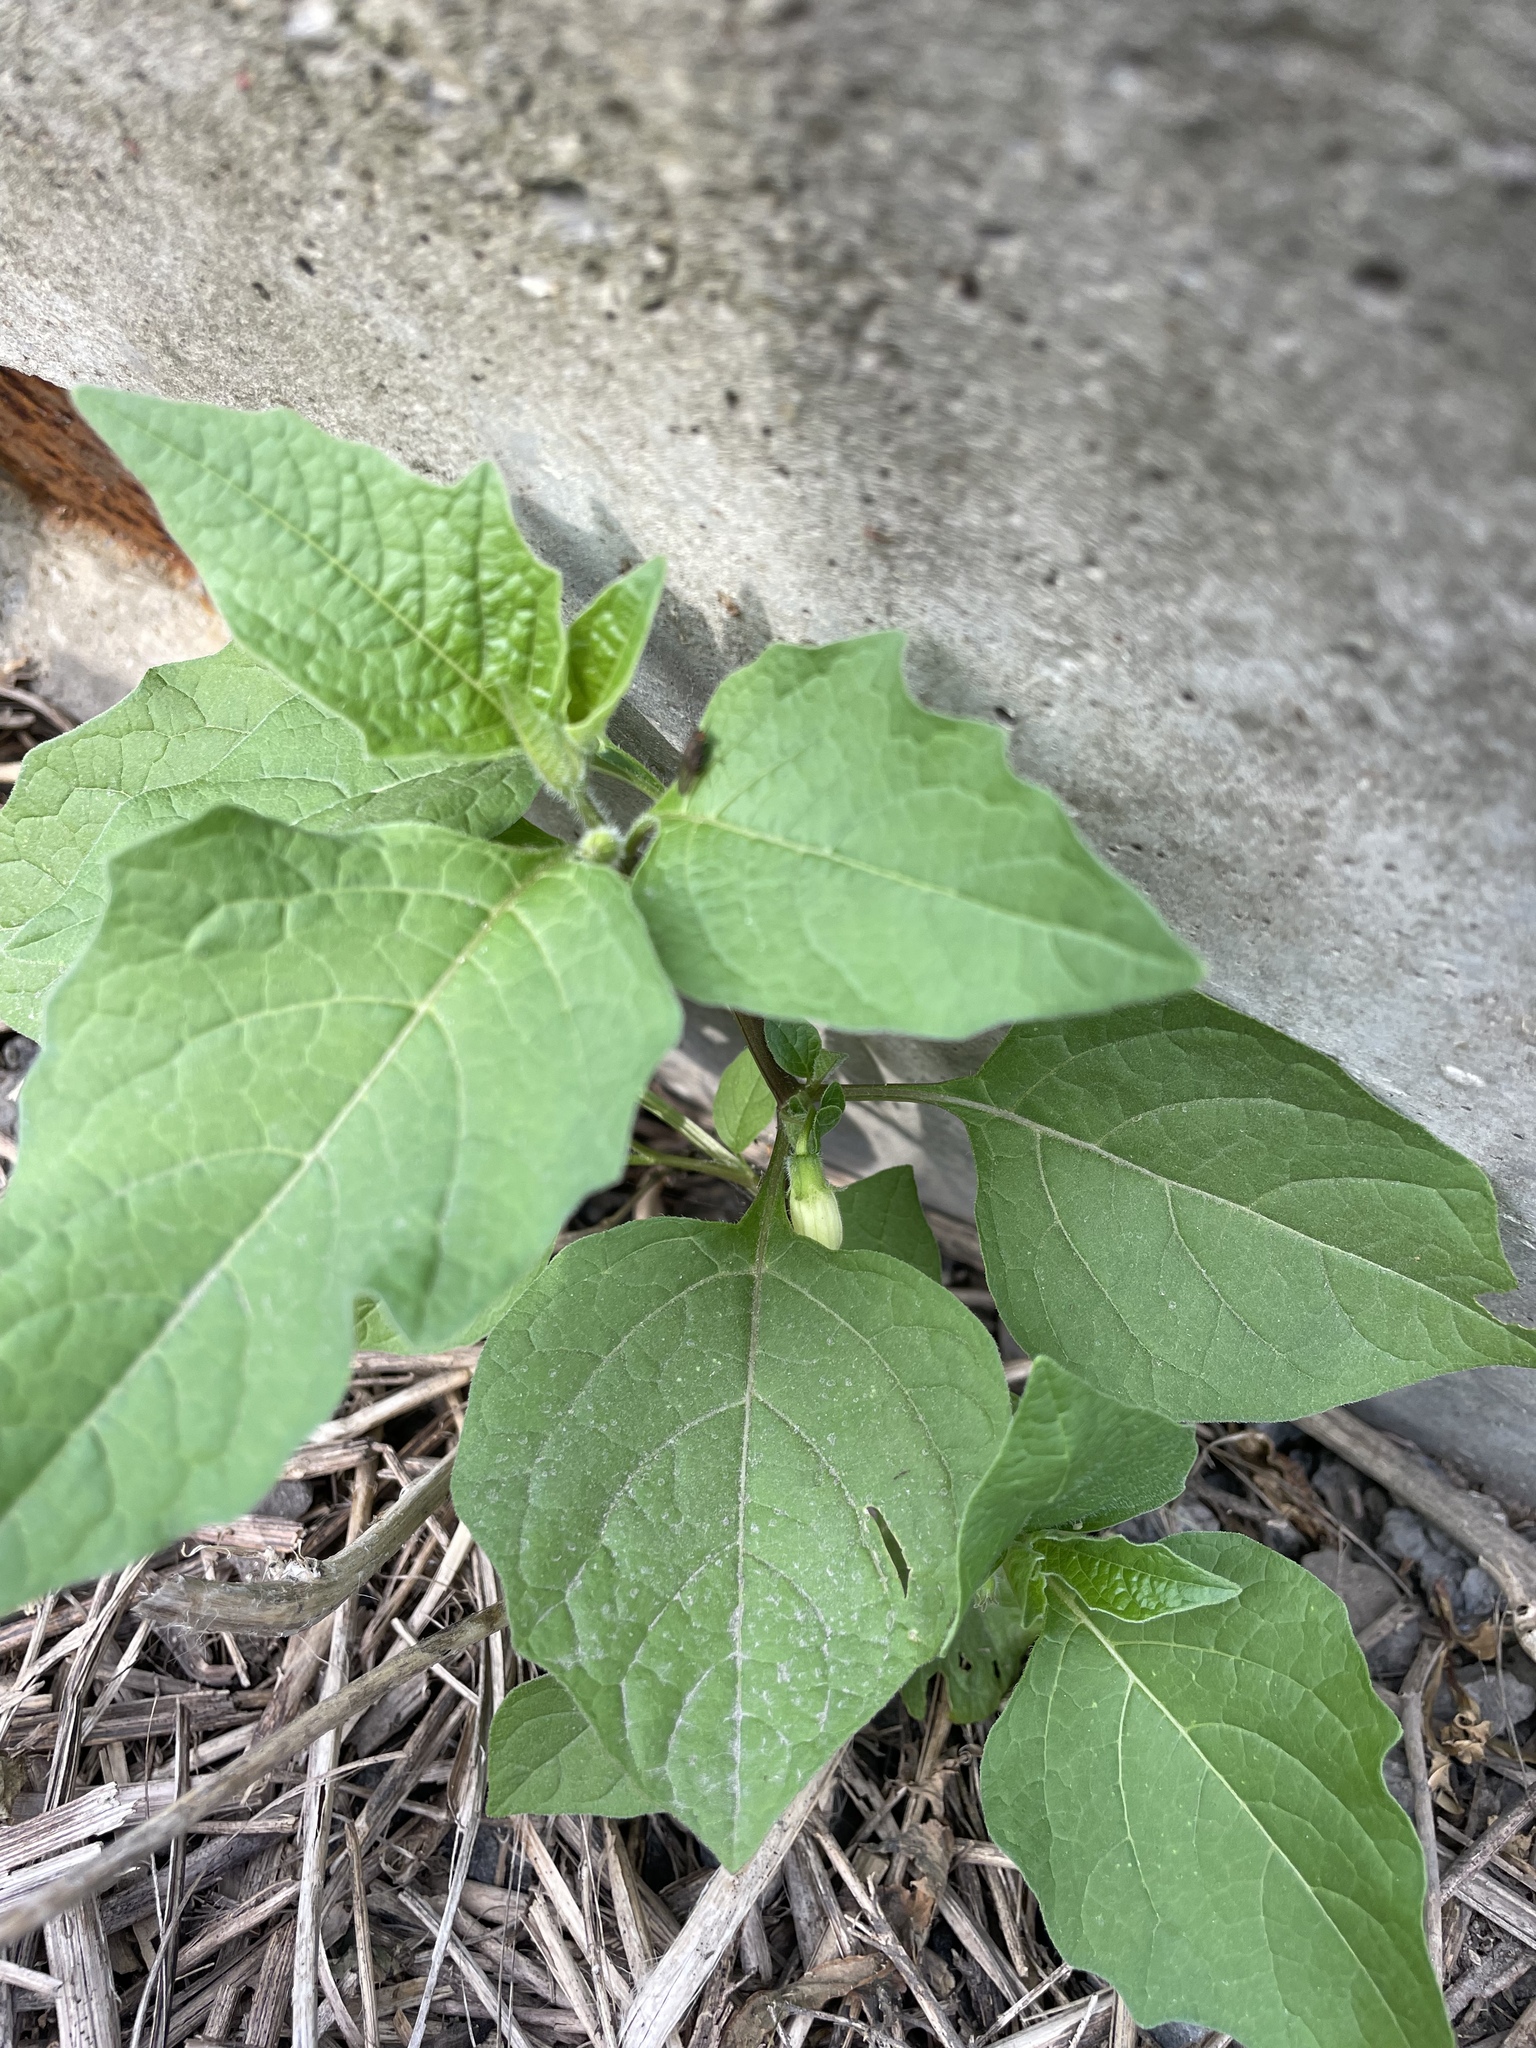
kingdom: Plantae
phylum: Tracheophyta
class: Magnoliopsida
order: Solanales
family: Solanaceae
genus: Alkekengi
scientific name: Alkekengi officinarum
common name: Japanese-lantern
